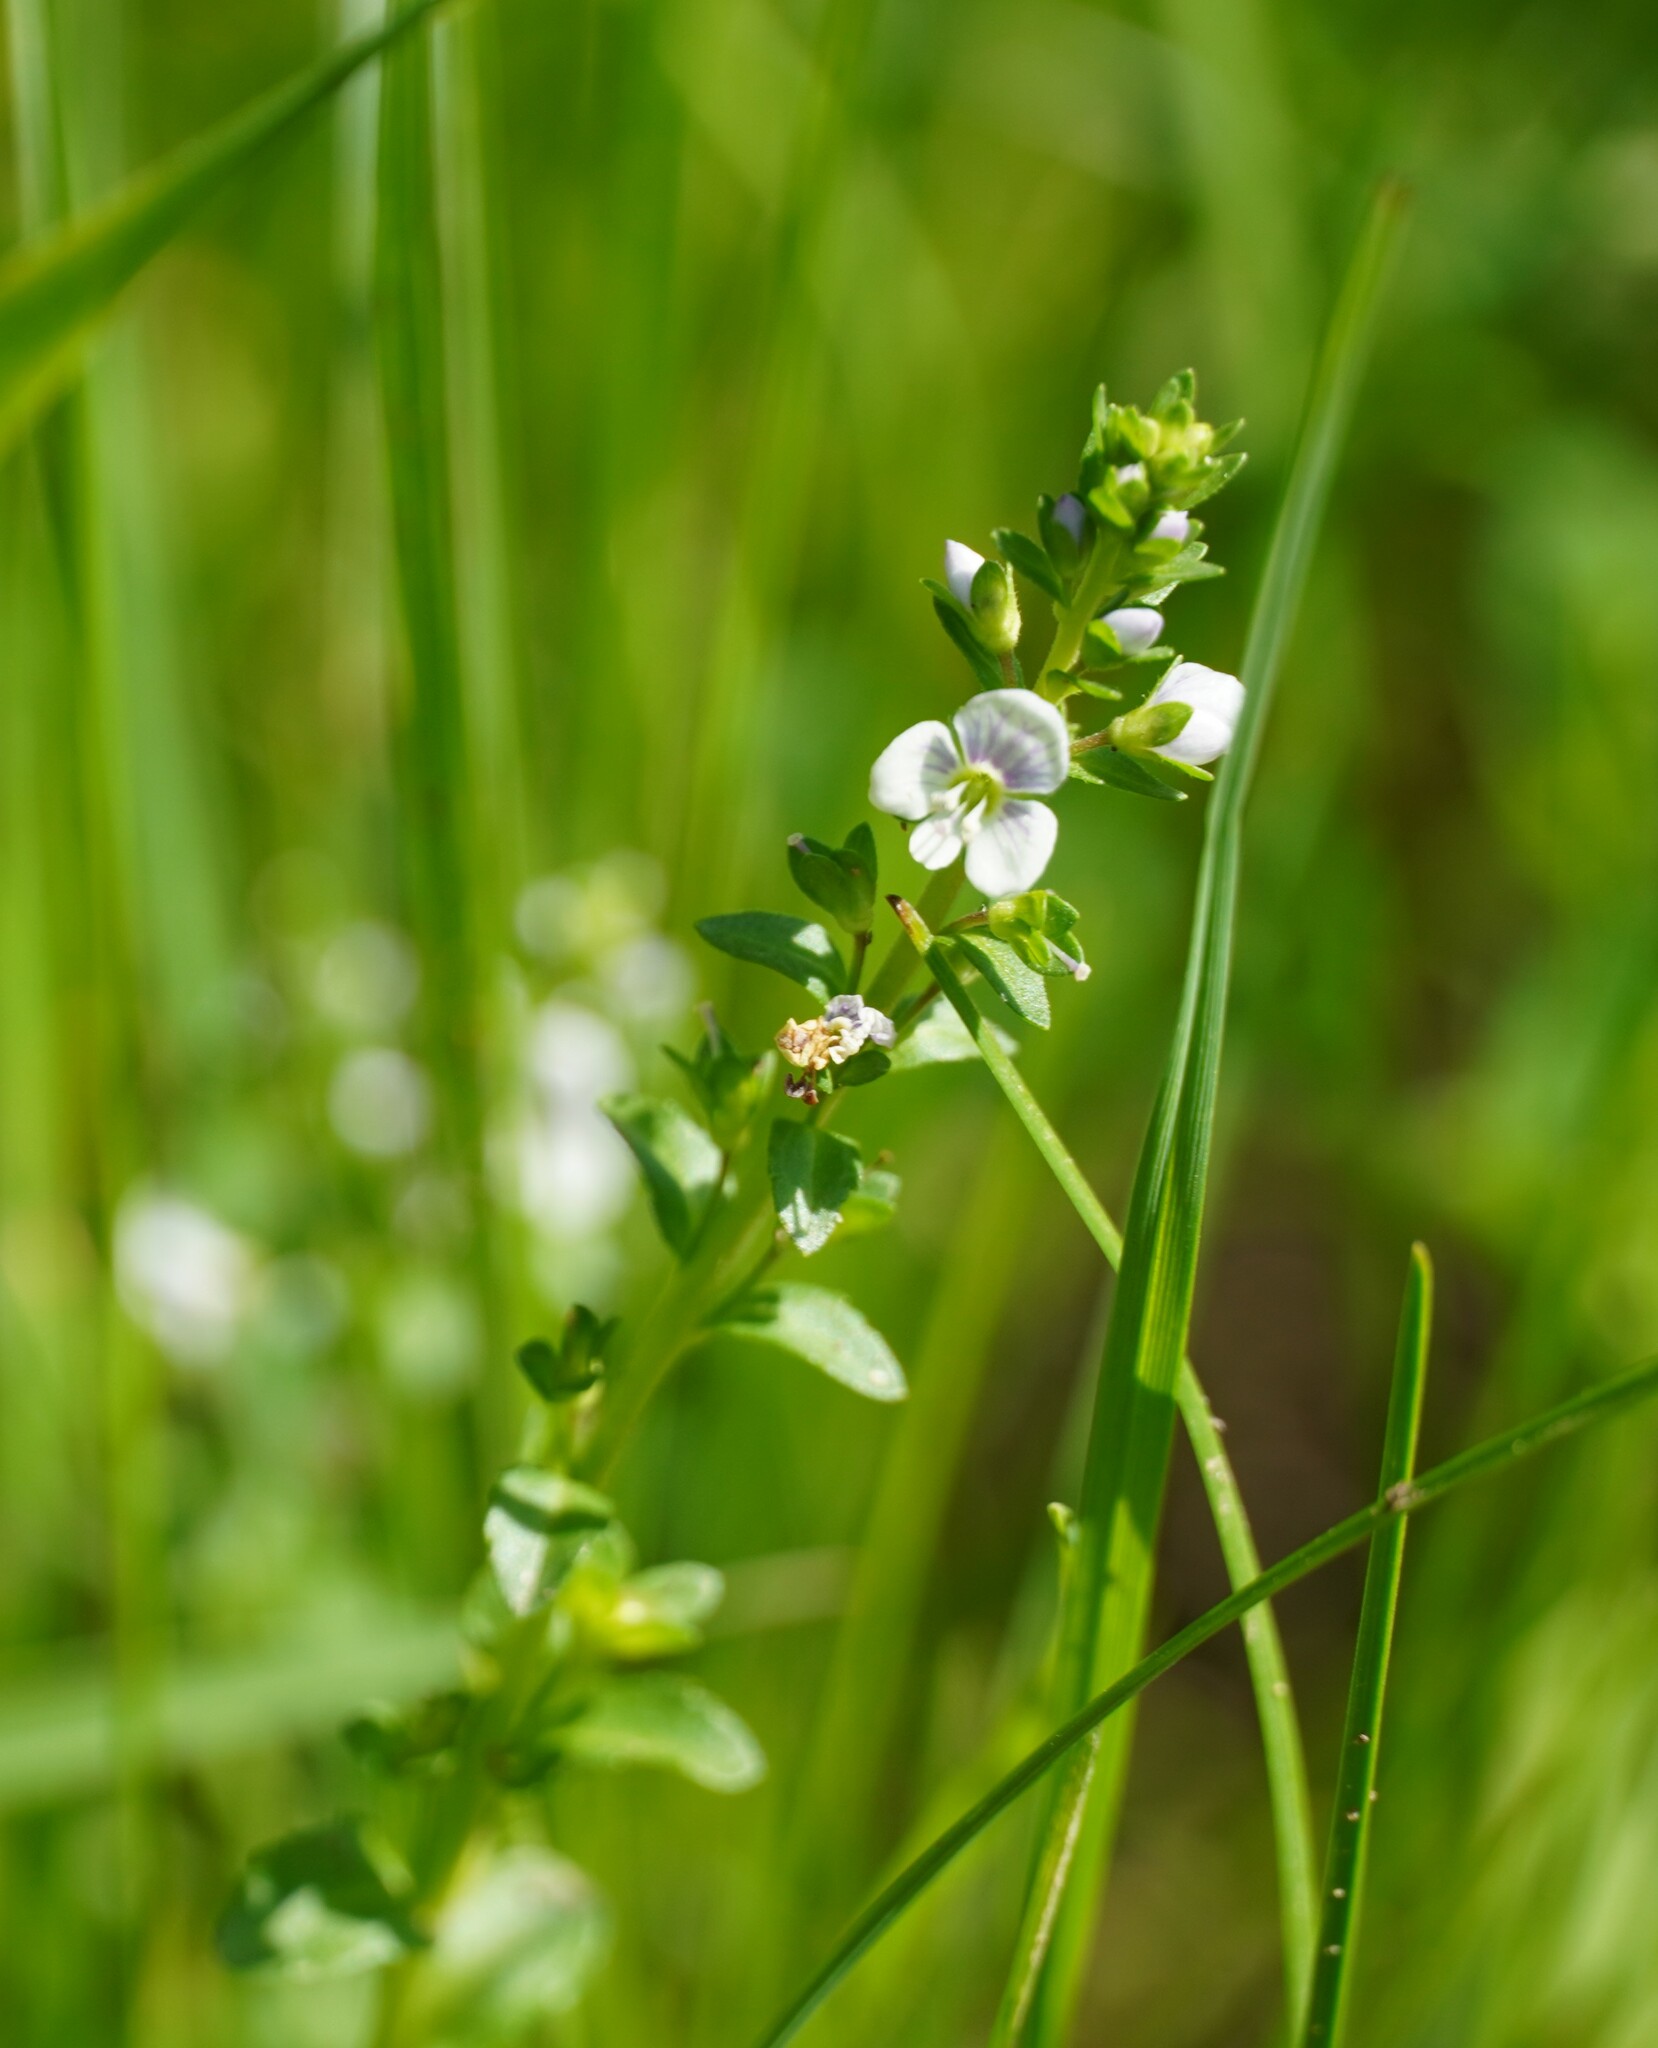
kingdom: Plantae
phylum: Tracheophyta
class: Magnoliopsida
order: Lamiales
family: Plantaginaceae
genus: Veronica
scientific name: Veronica serpyllifolia
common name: Thyme-leaved speedwell
